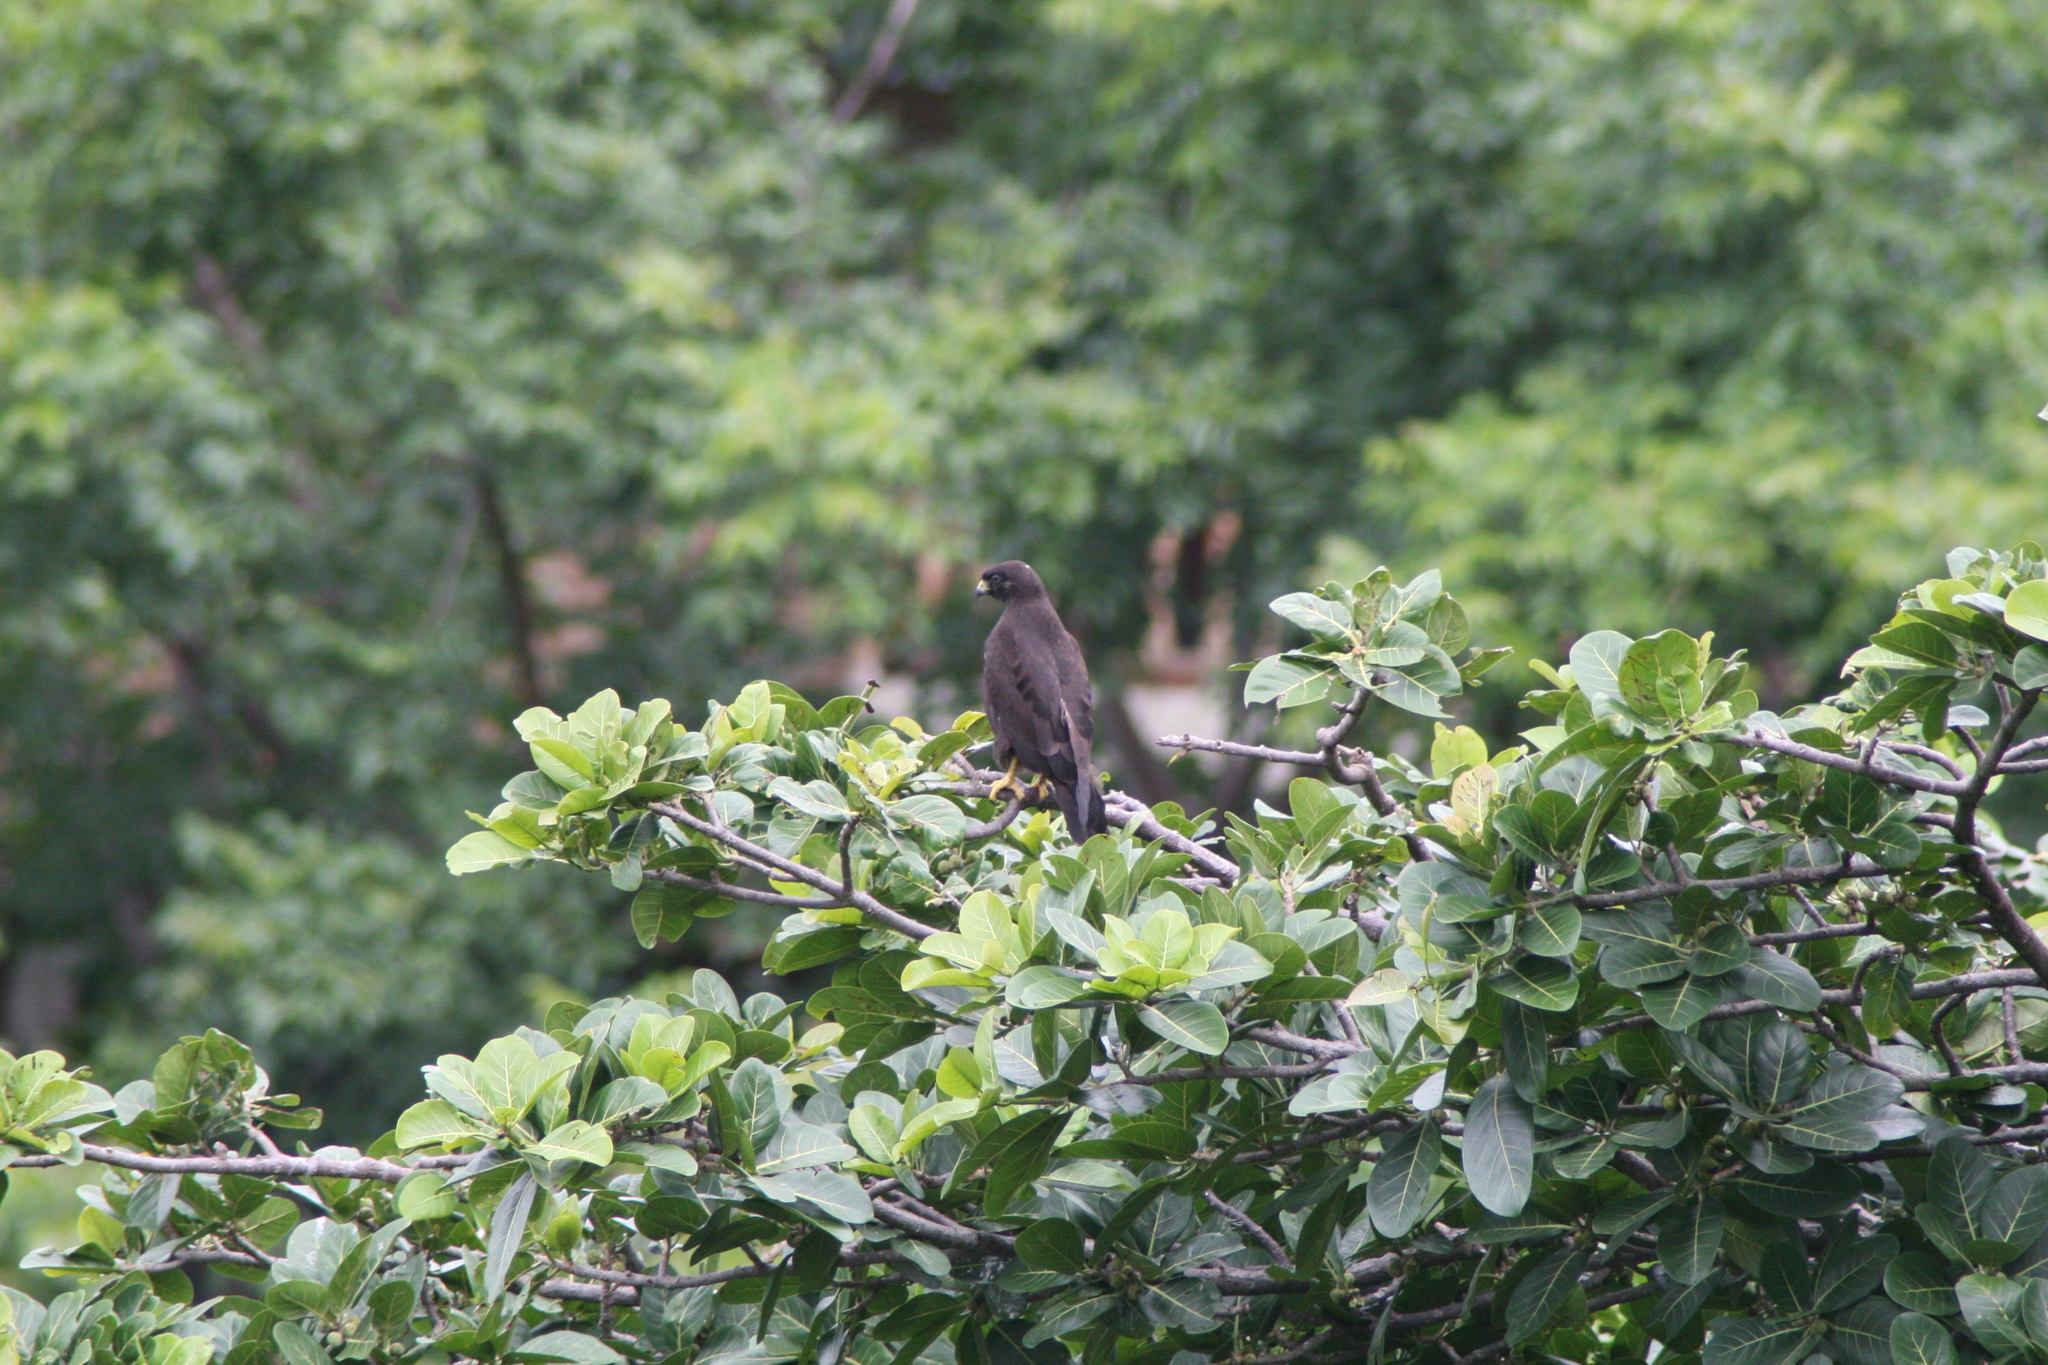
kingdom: Animalia
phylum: Chordata
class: Aves
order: Accipitriformes
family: Accipitridae
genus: Buteo
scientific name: Buteo brachyurus
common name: Short-tailed hawk
